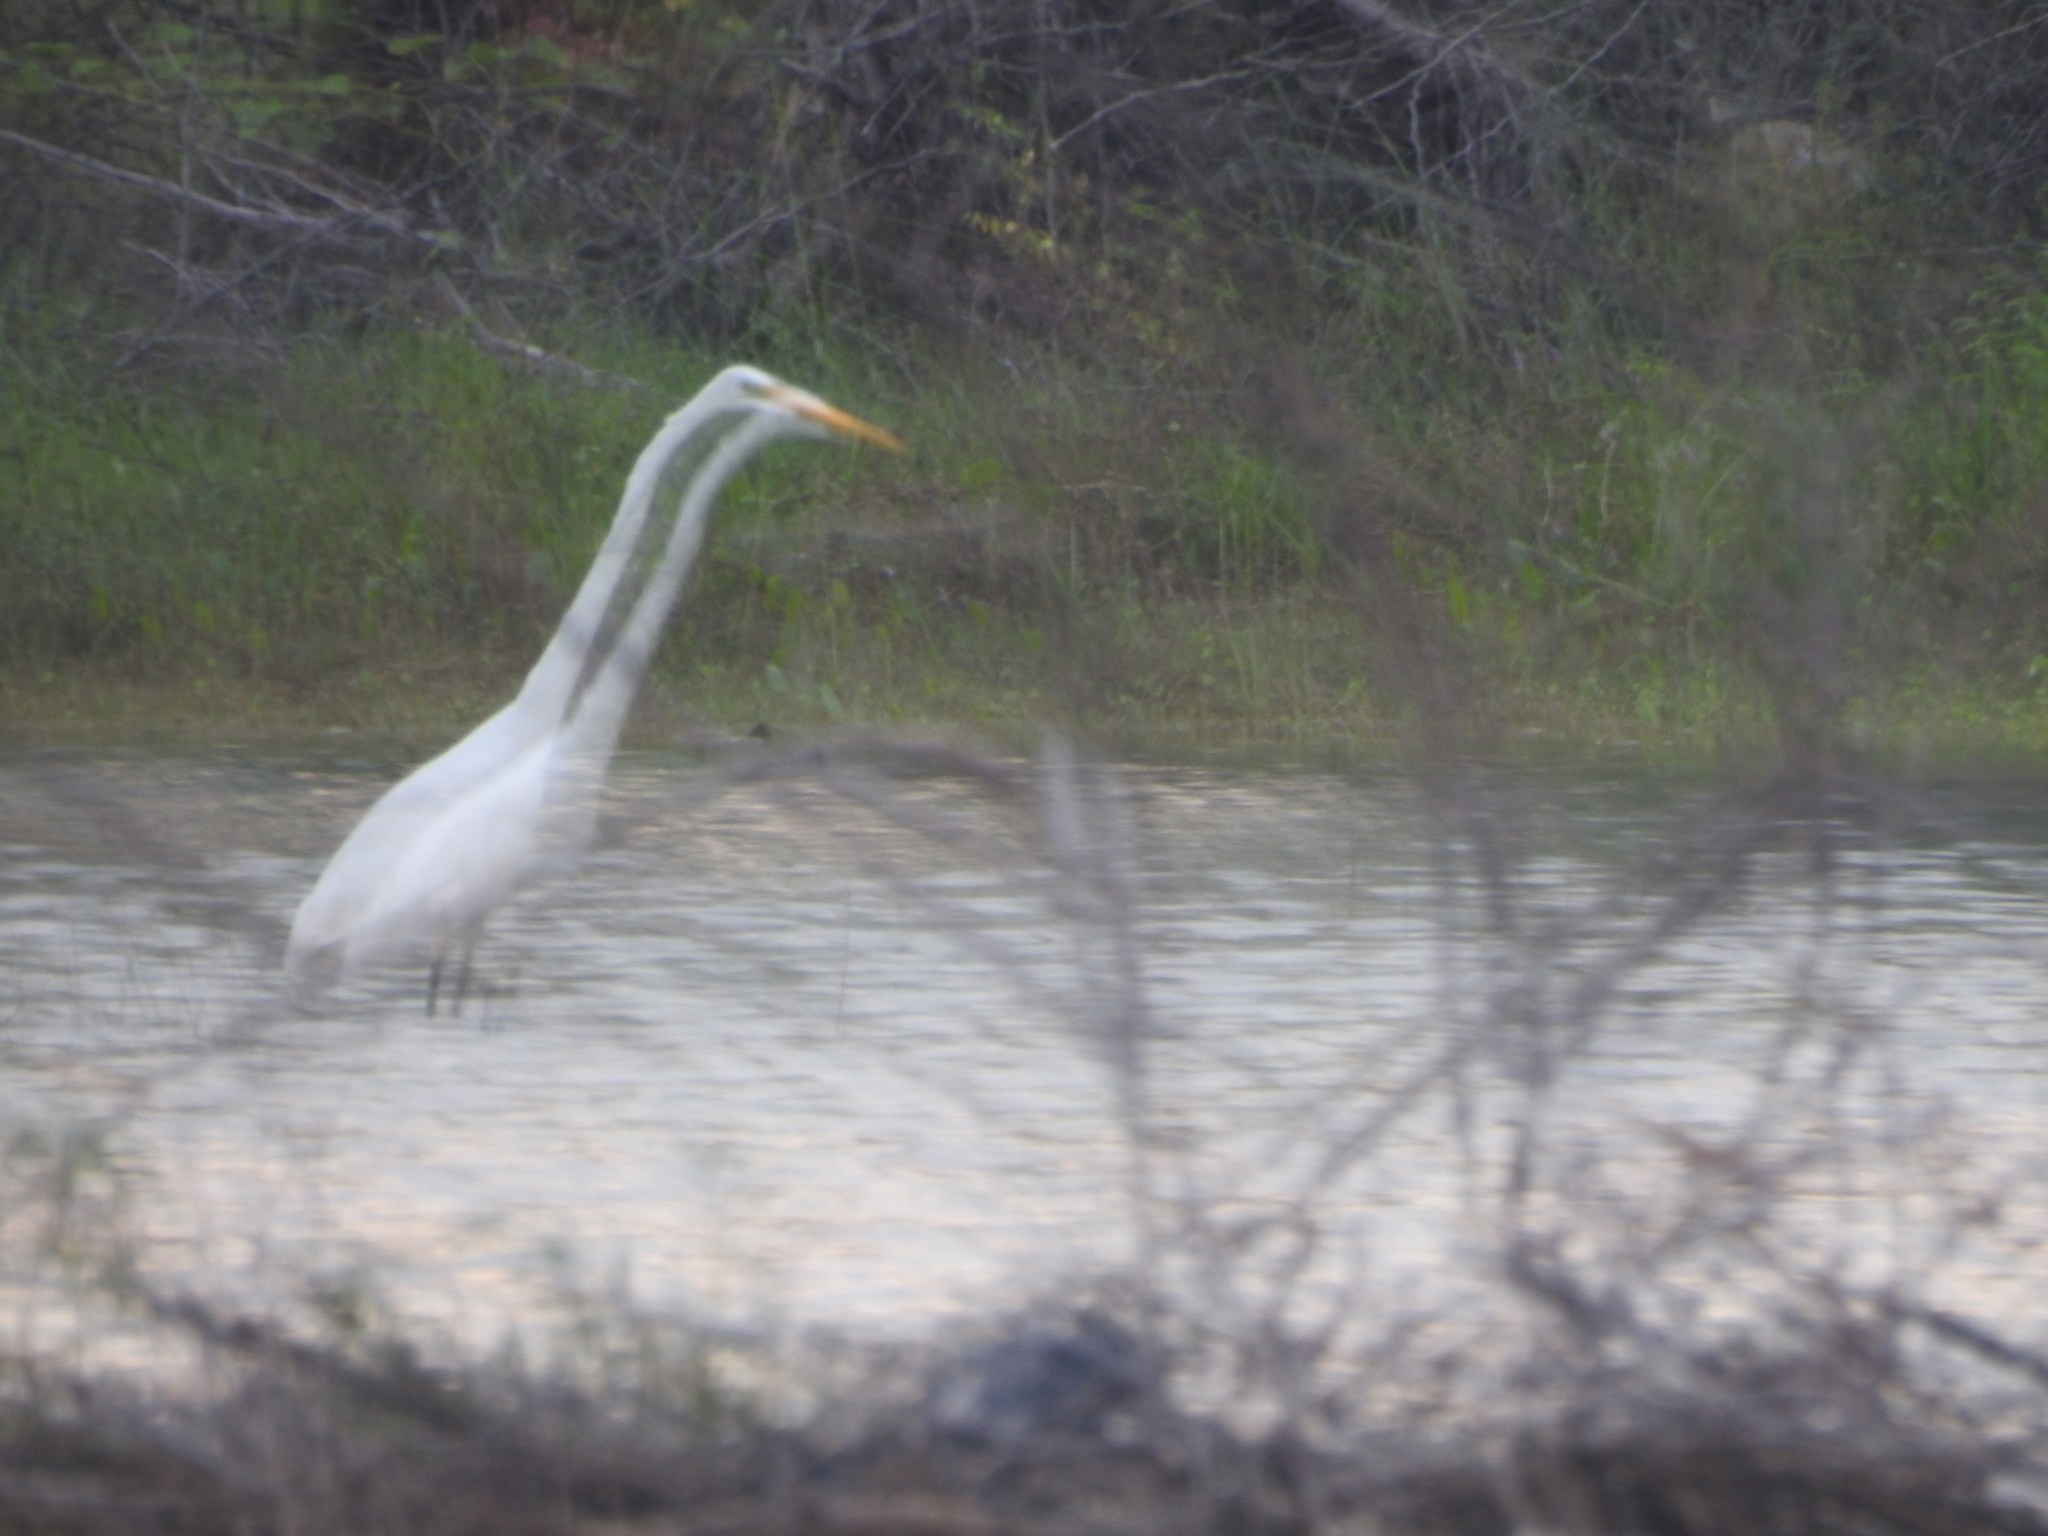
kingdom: Animalia
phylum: Chordata
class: Aves
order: Pelecaniformes
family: Ardeidae
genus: Ardea
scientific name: Ardea alba
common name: Great egret
